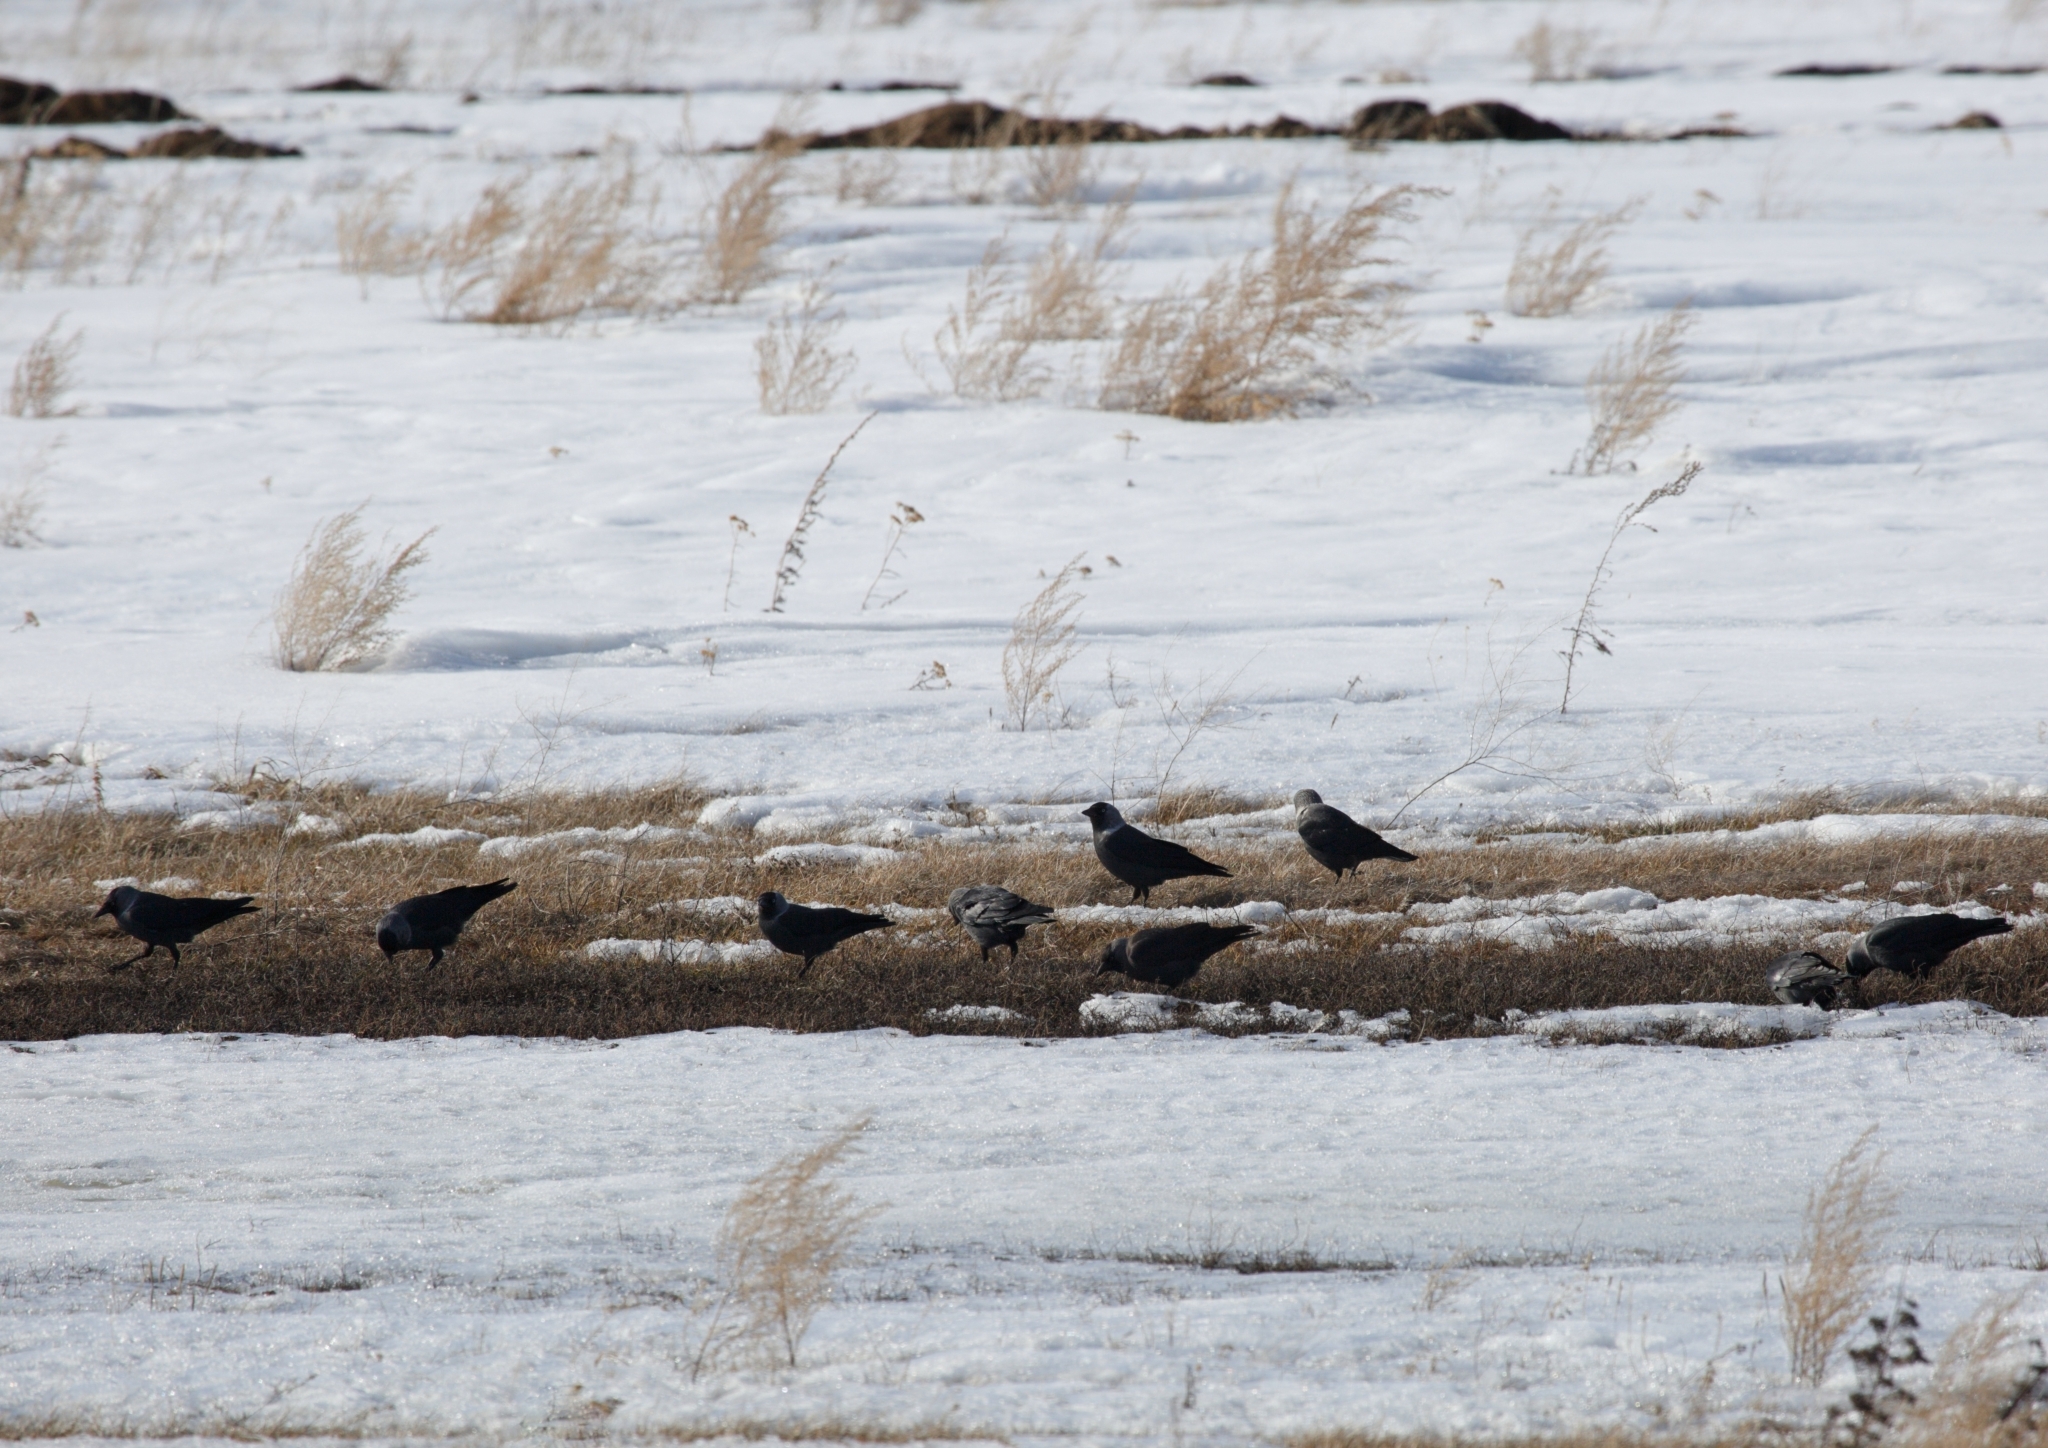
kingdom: Animalia
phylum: Chordata
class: Aves
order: Passeriformes
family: Corvidae
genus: Coloeus
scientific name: Coloeus monedula
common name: Western jackdaw
